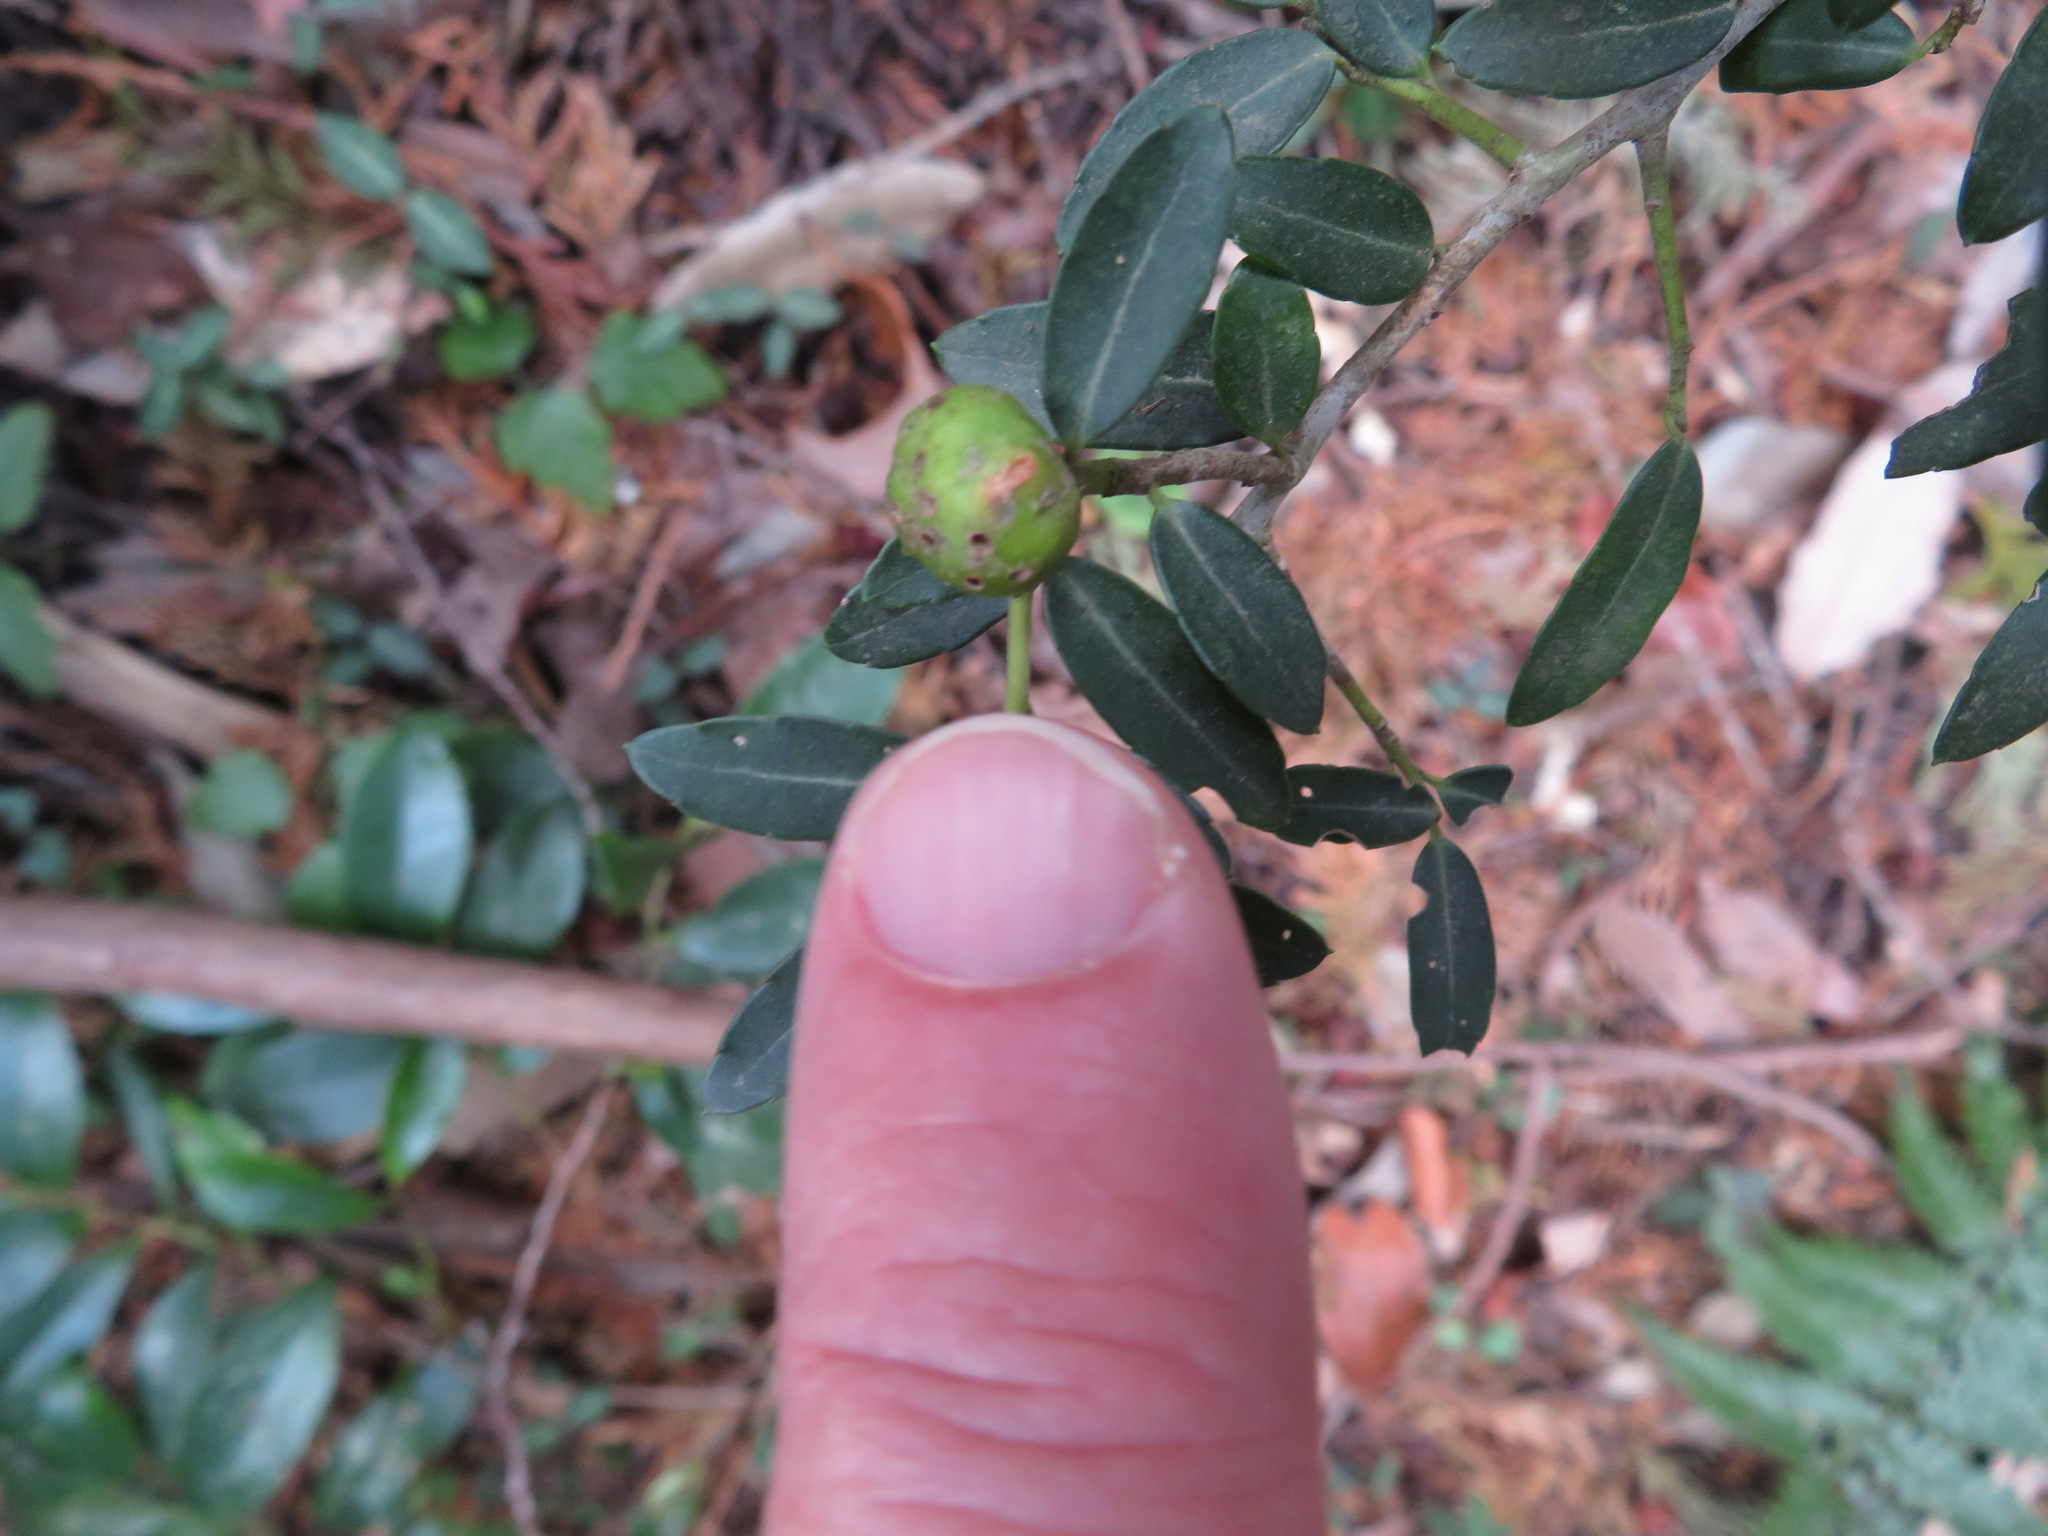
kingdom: Plantae
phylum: Tracheophyta
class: Magnoliopsida
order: Aquifoliales
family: Aquifoliaceae
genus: Ilex
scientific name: Ilex crenata
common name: Japanese holly
